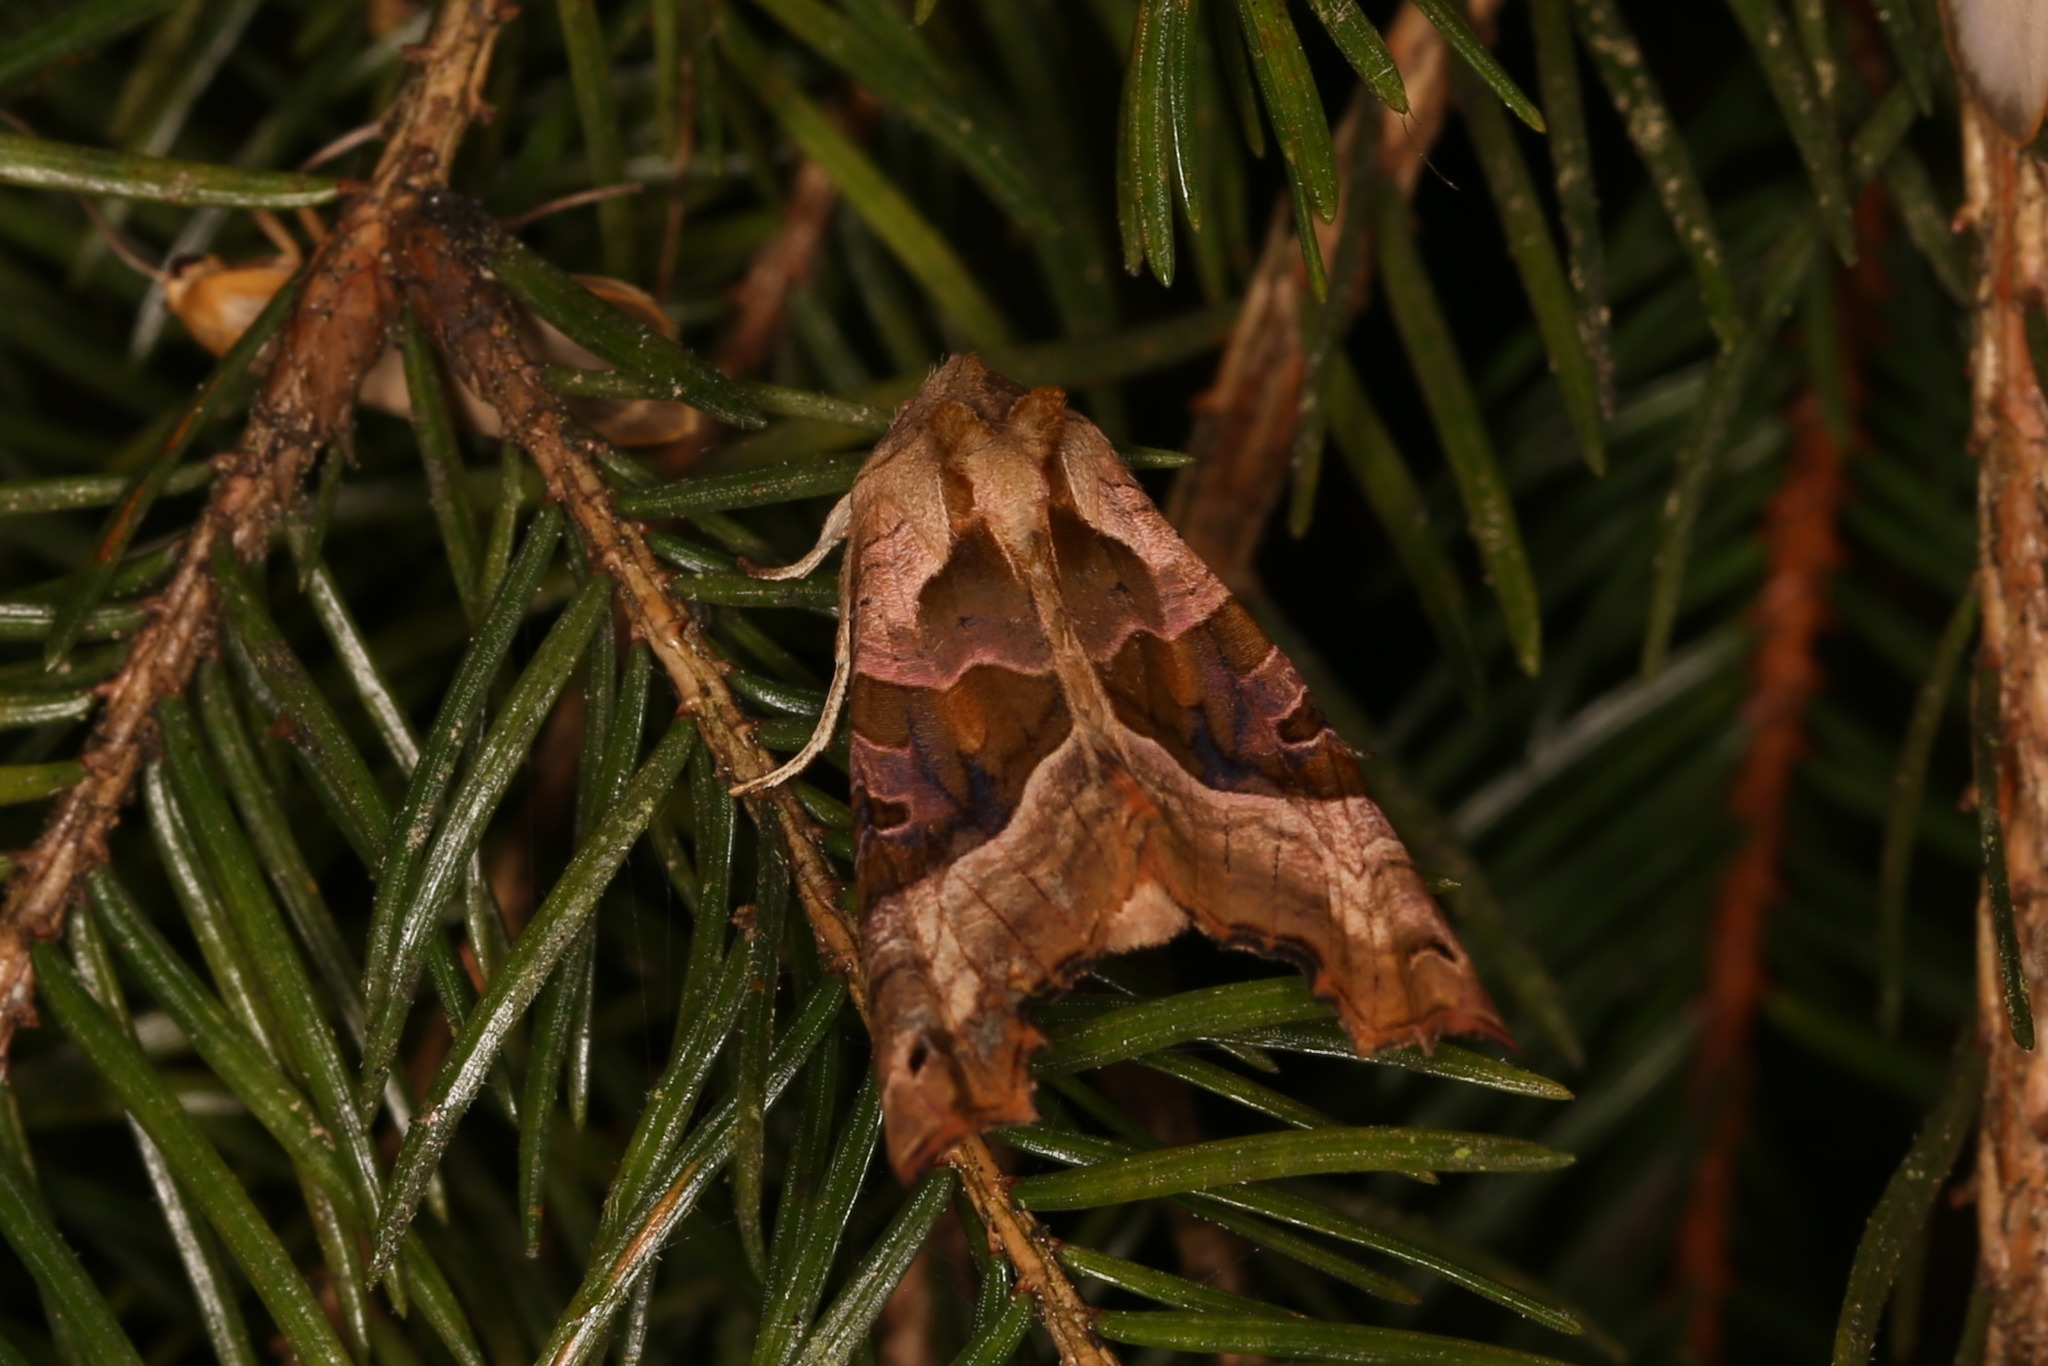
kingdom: Animalia
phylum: Arthropoda
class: Insecta
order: Lepidoptera
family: Noctuidae
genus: Phlogophora
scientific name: Phlogophora meticulosa
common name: Angle shades
